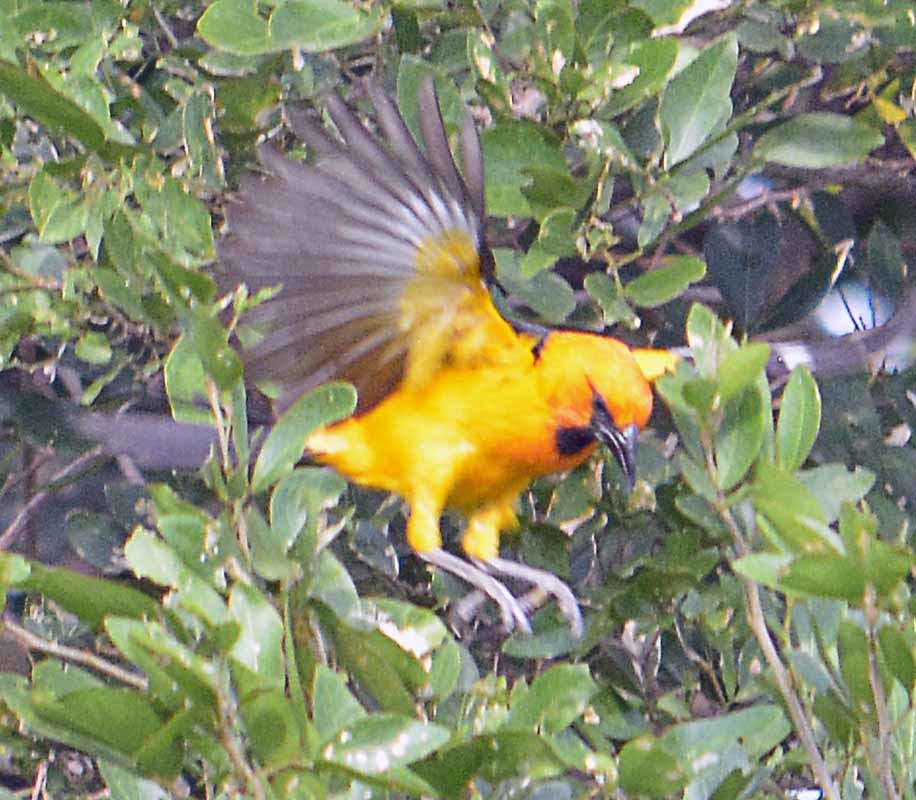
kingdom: Animalia
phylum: Chordata
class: Aves
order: Passeriformes
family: Icteridae
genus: Icterus
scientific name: Icterus gularis
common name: Altamira oriole
